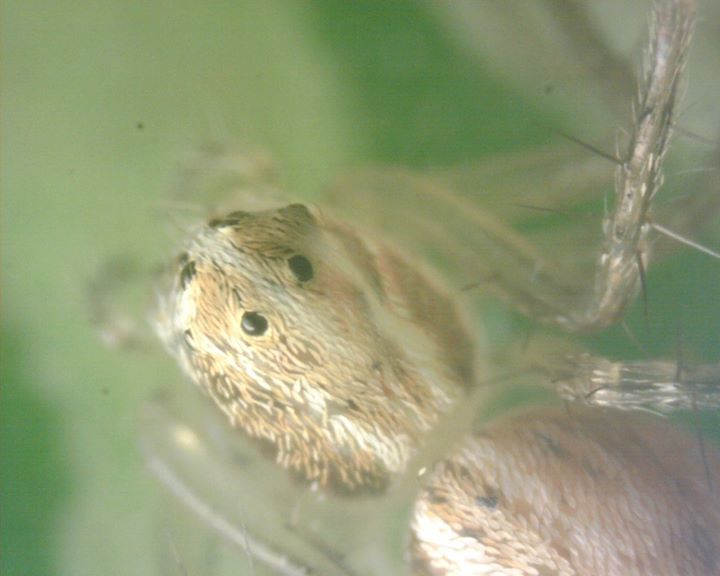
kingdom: Animalia
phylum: Arthropoda
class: Arachnida
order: Araneae
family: Oxyopidae
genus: Oxyopes
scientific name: Oxyopes sertatus
